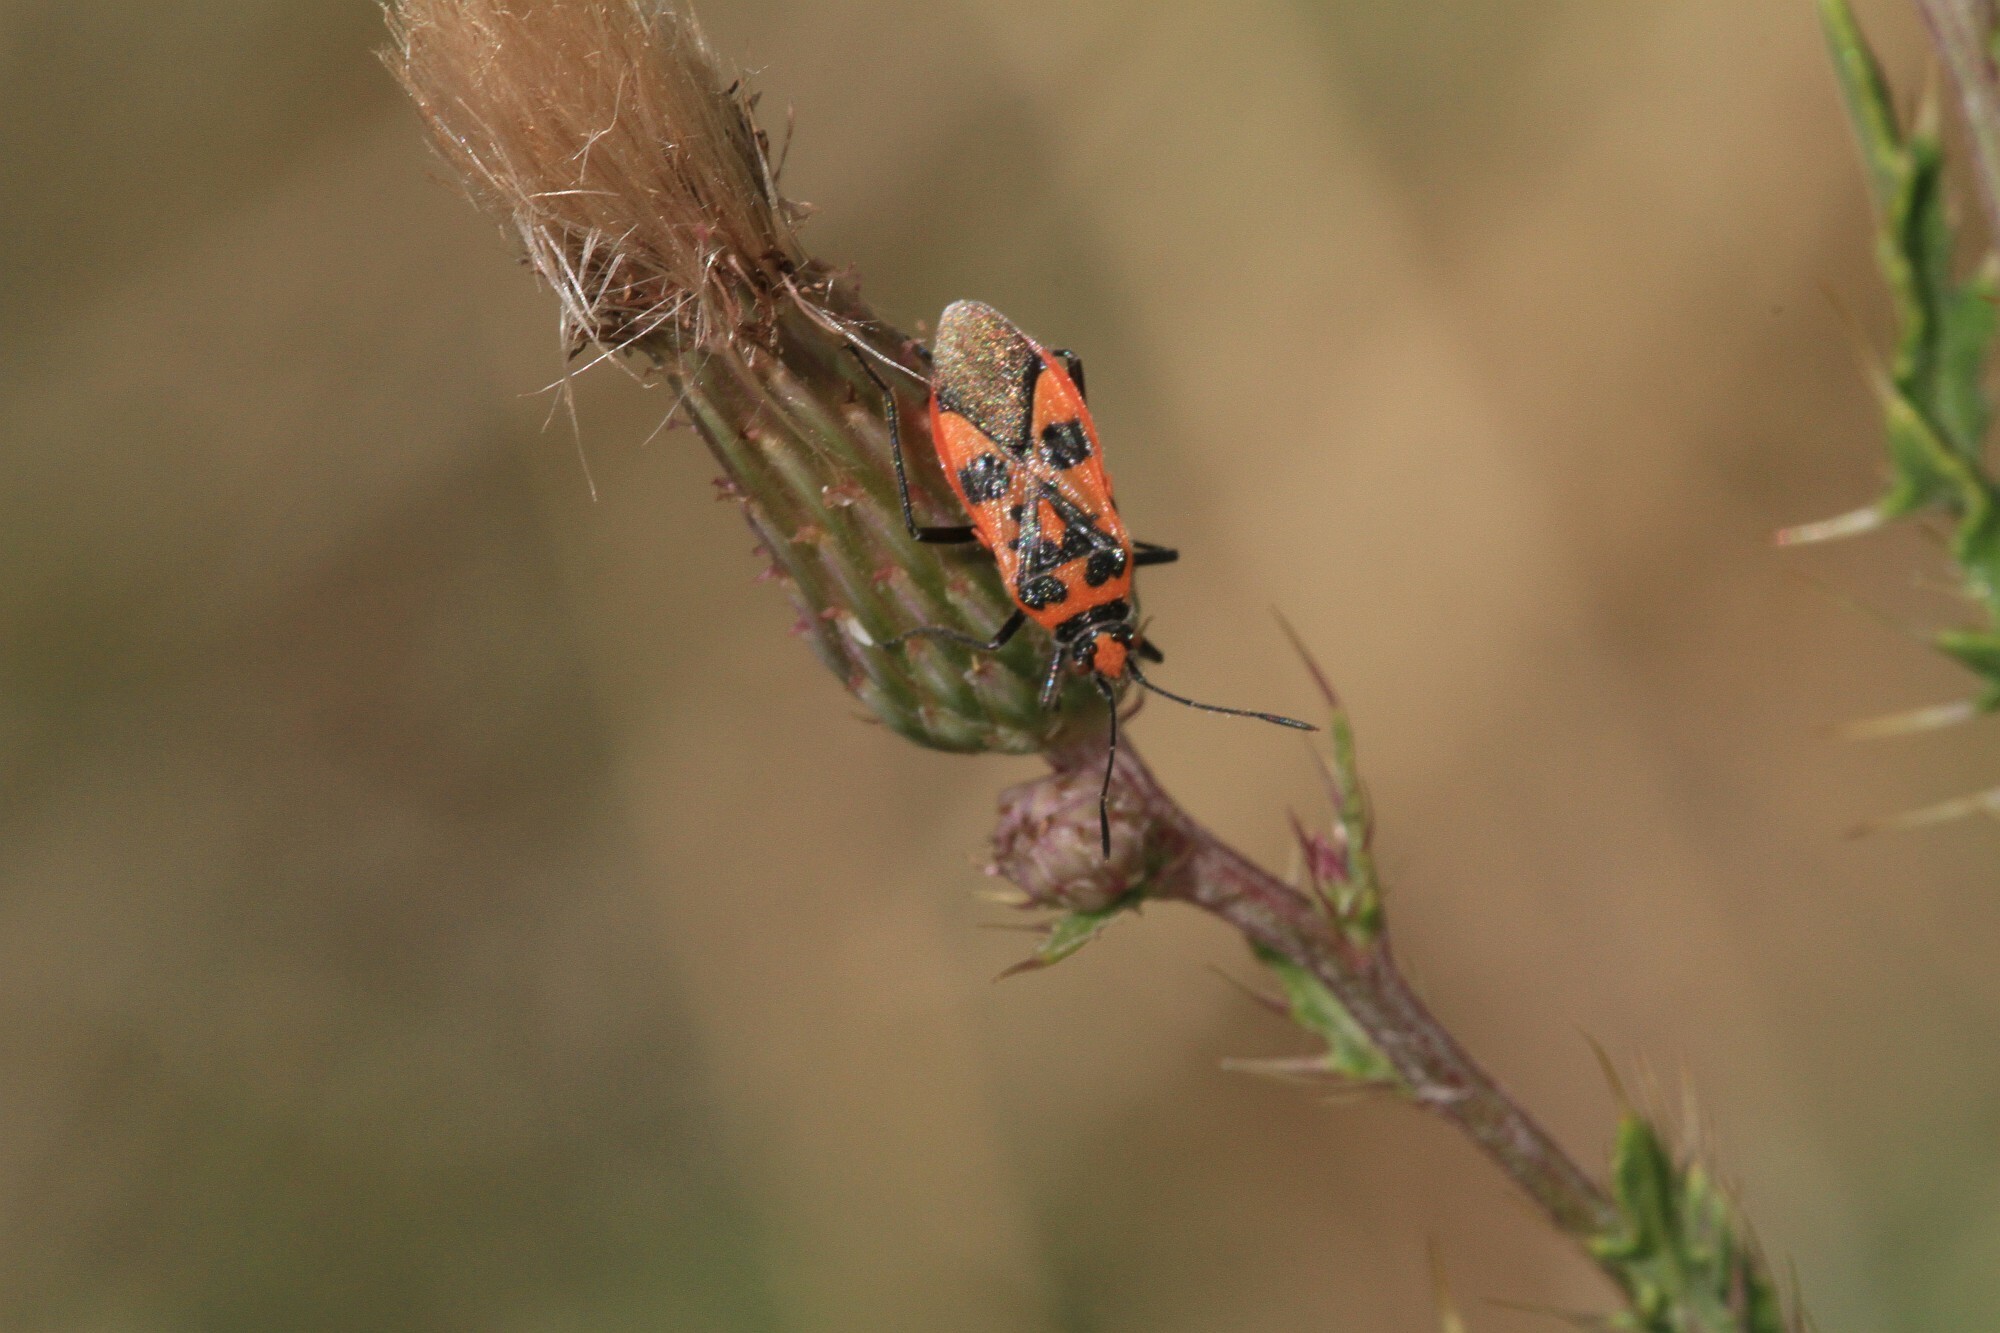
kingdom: Animalia
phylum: Arthropoda
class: Insecta
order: Hemiptera
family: Rhopalidae
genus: Corizus
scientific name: Corizus hyoscyami
